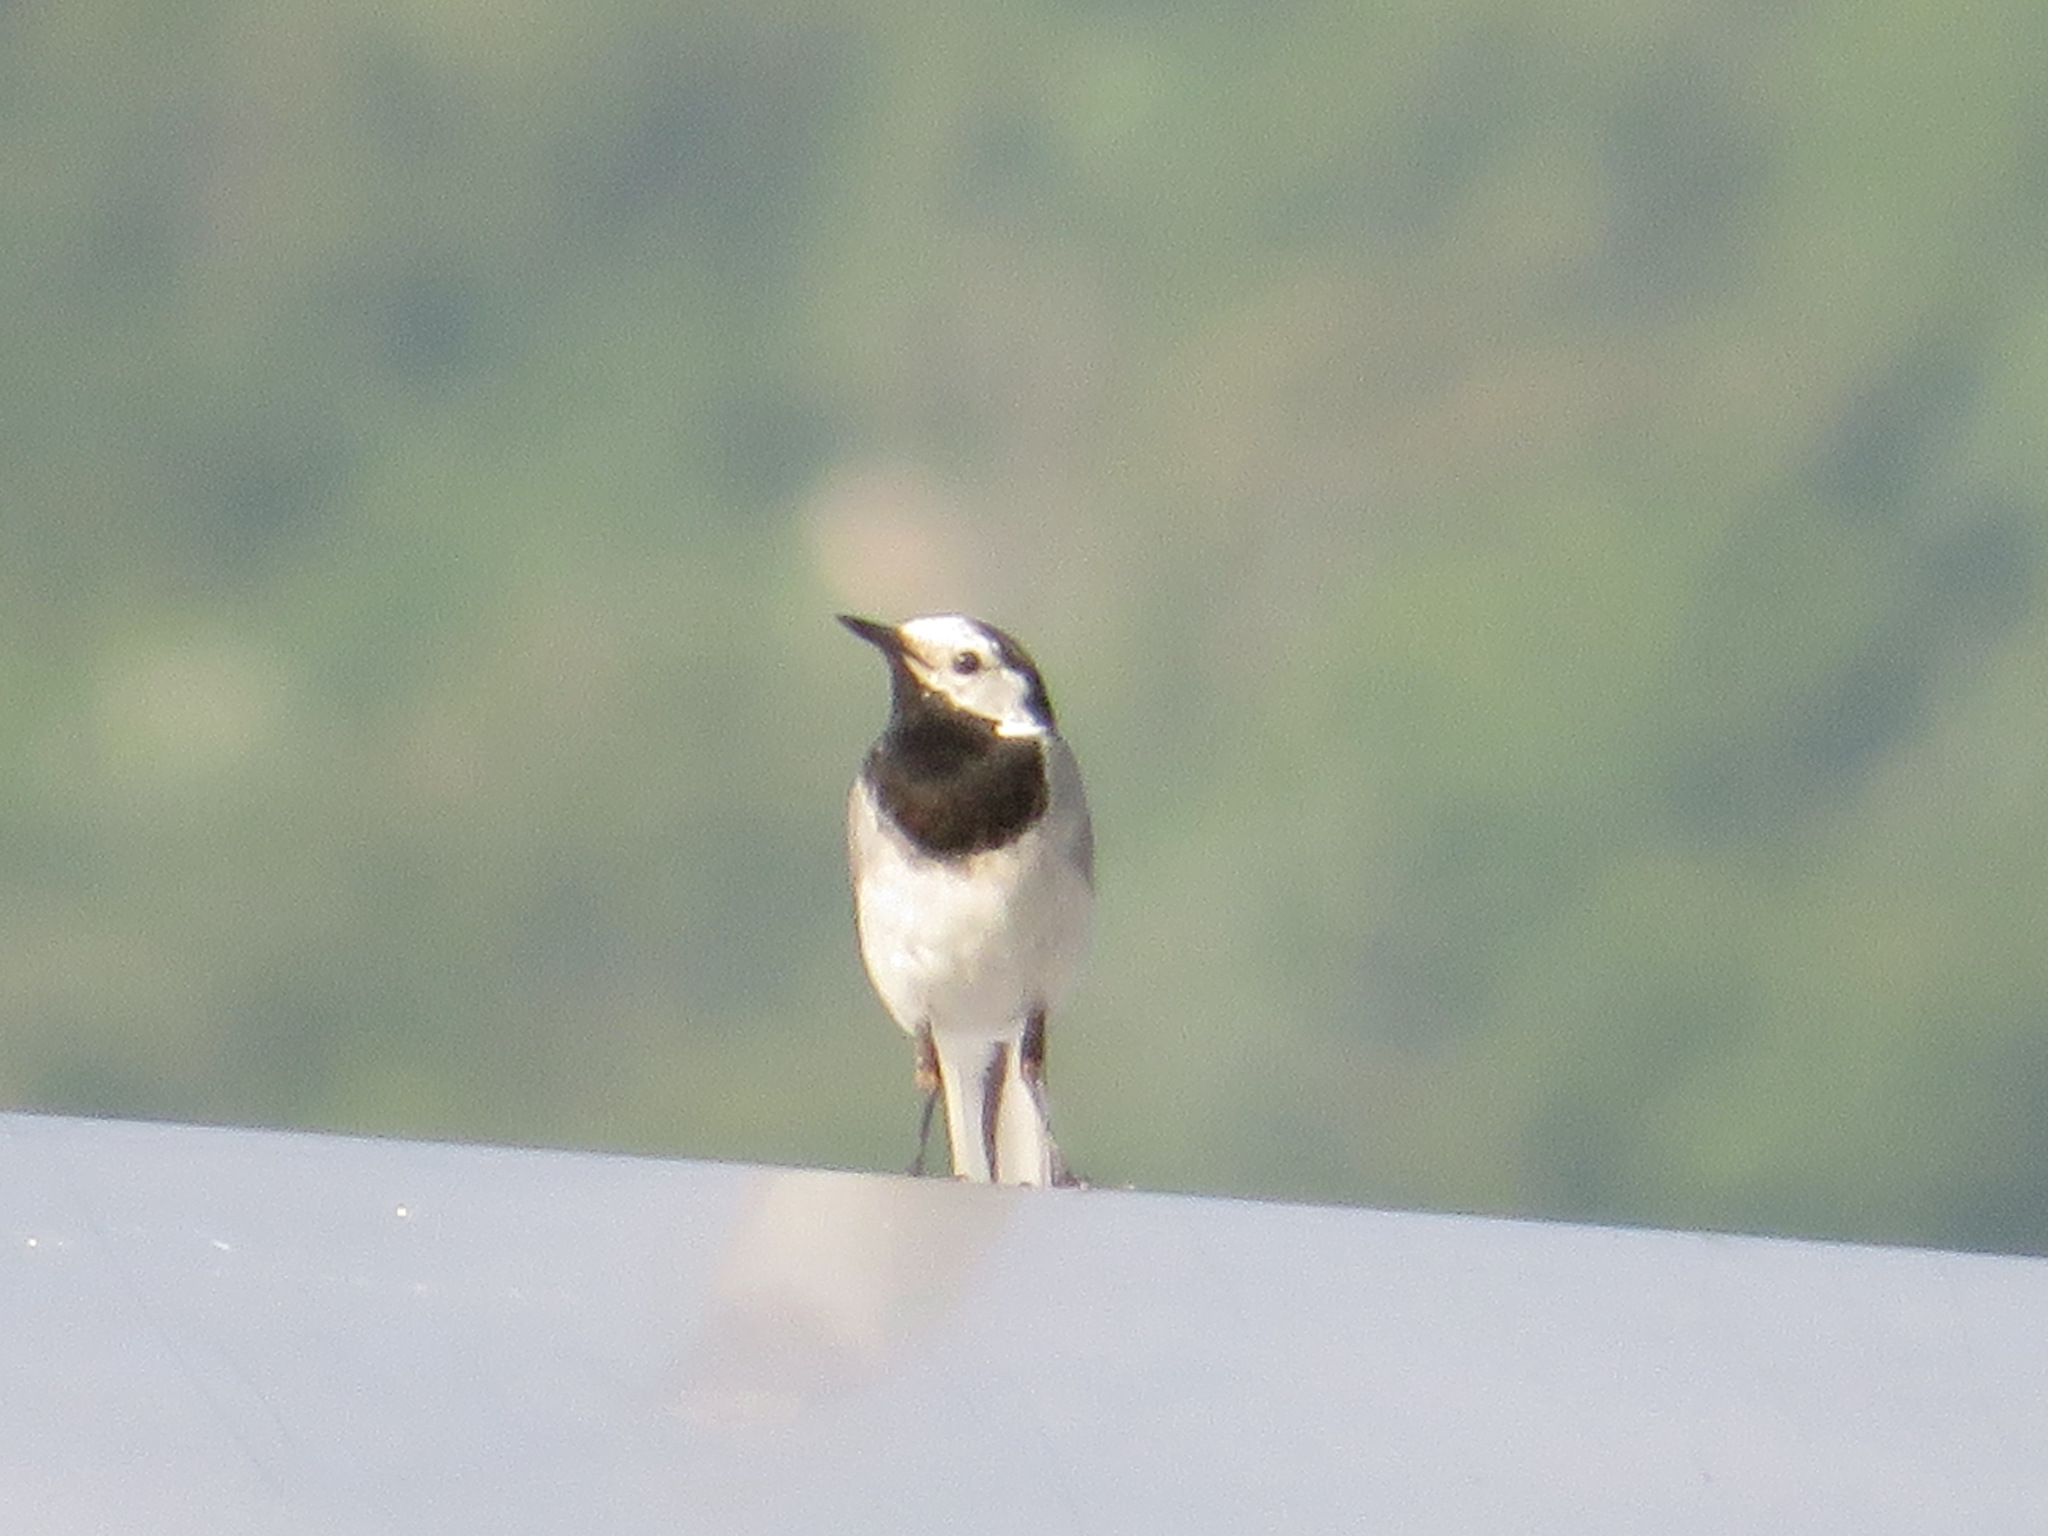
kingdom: Animalia
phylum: Chordata
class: Aves
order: Passeriformes
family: Motacillidae
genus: Motacilla
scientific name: Motacilla alba
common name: White wagtail
